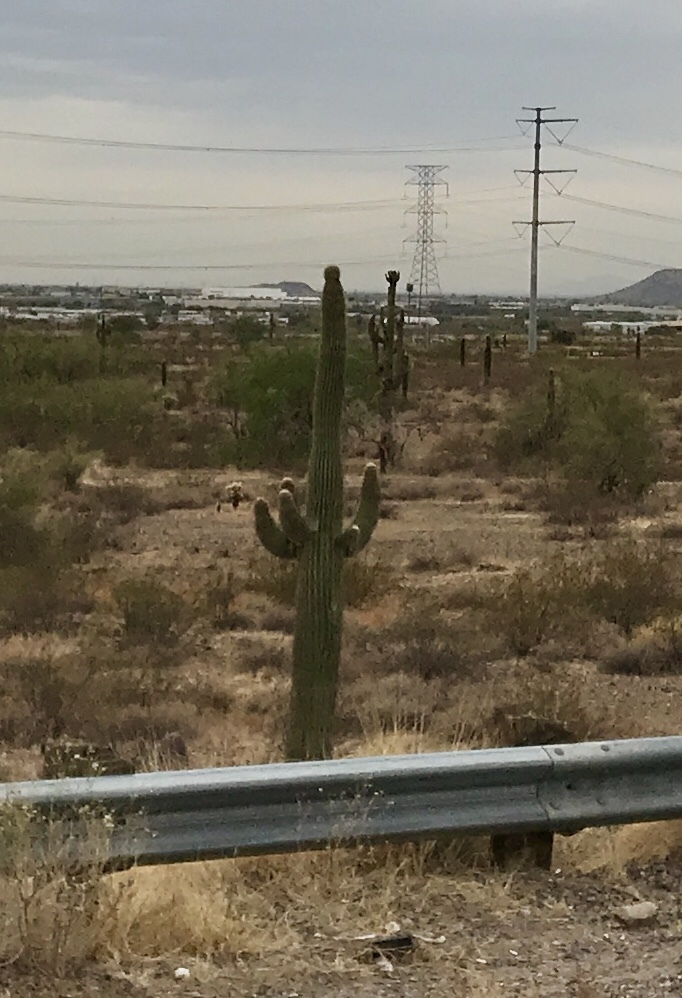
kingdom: Plantae
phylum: Tracheophyta
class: Magnoliopsida
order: Caryophyllales
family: Cactaceae
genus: Carnegiea
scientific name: Carnegiea gigantea
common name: Saguaro
